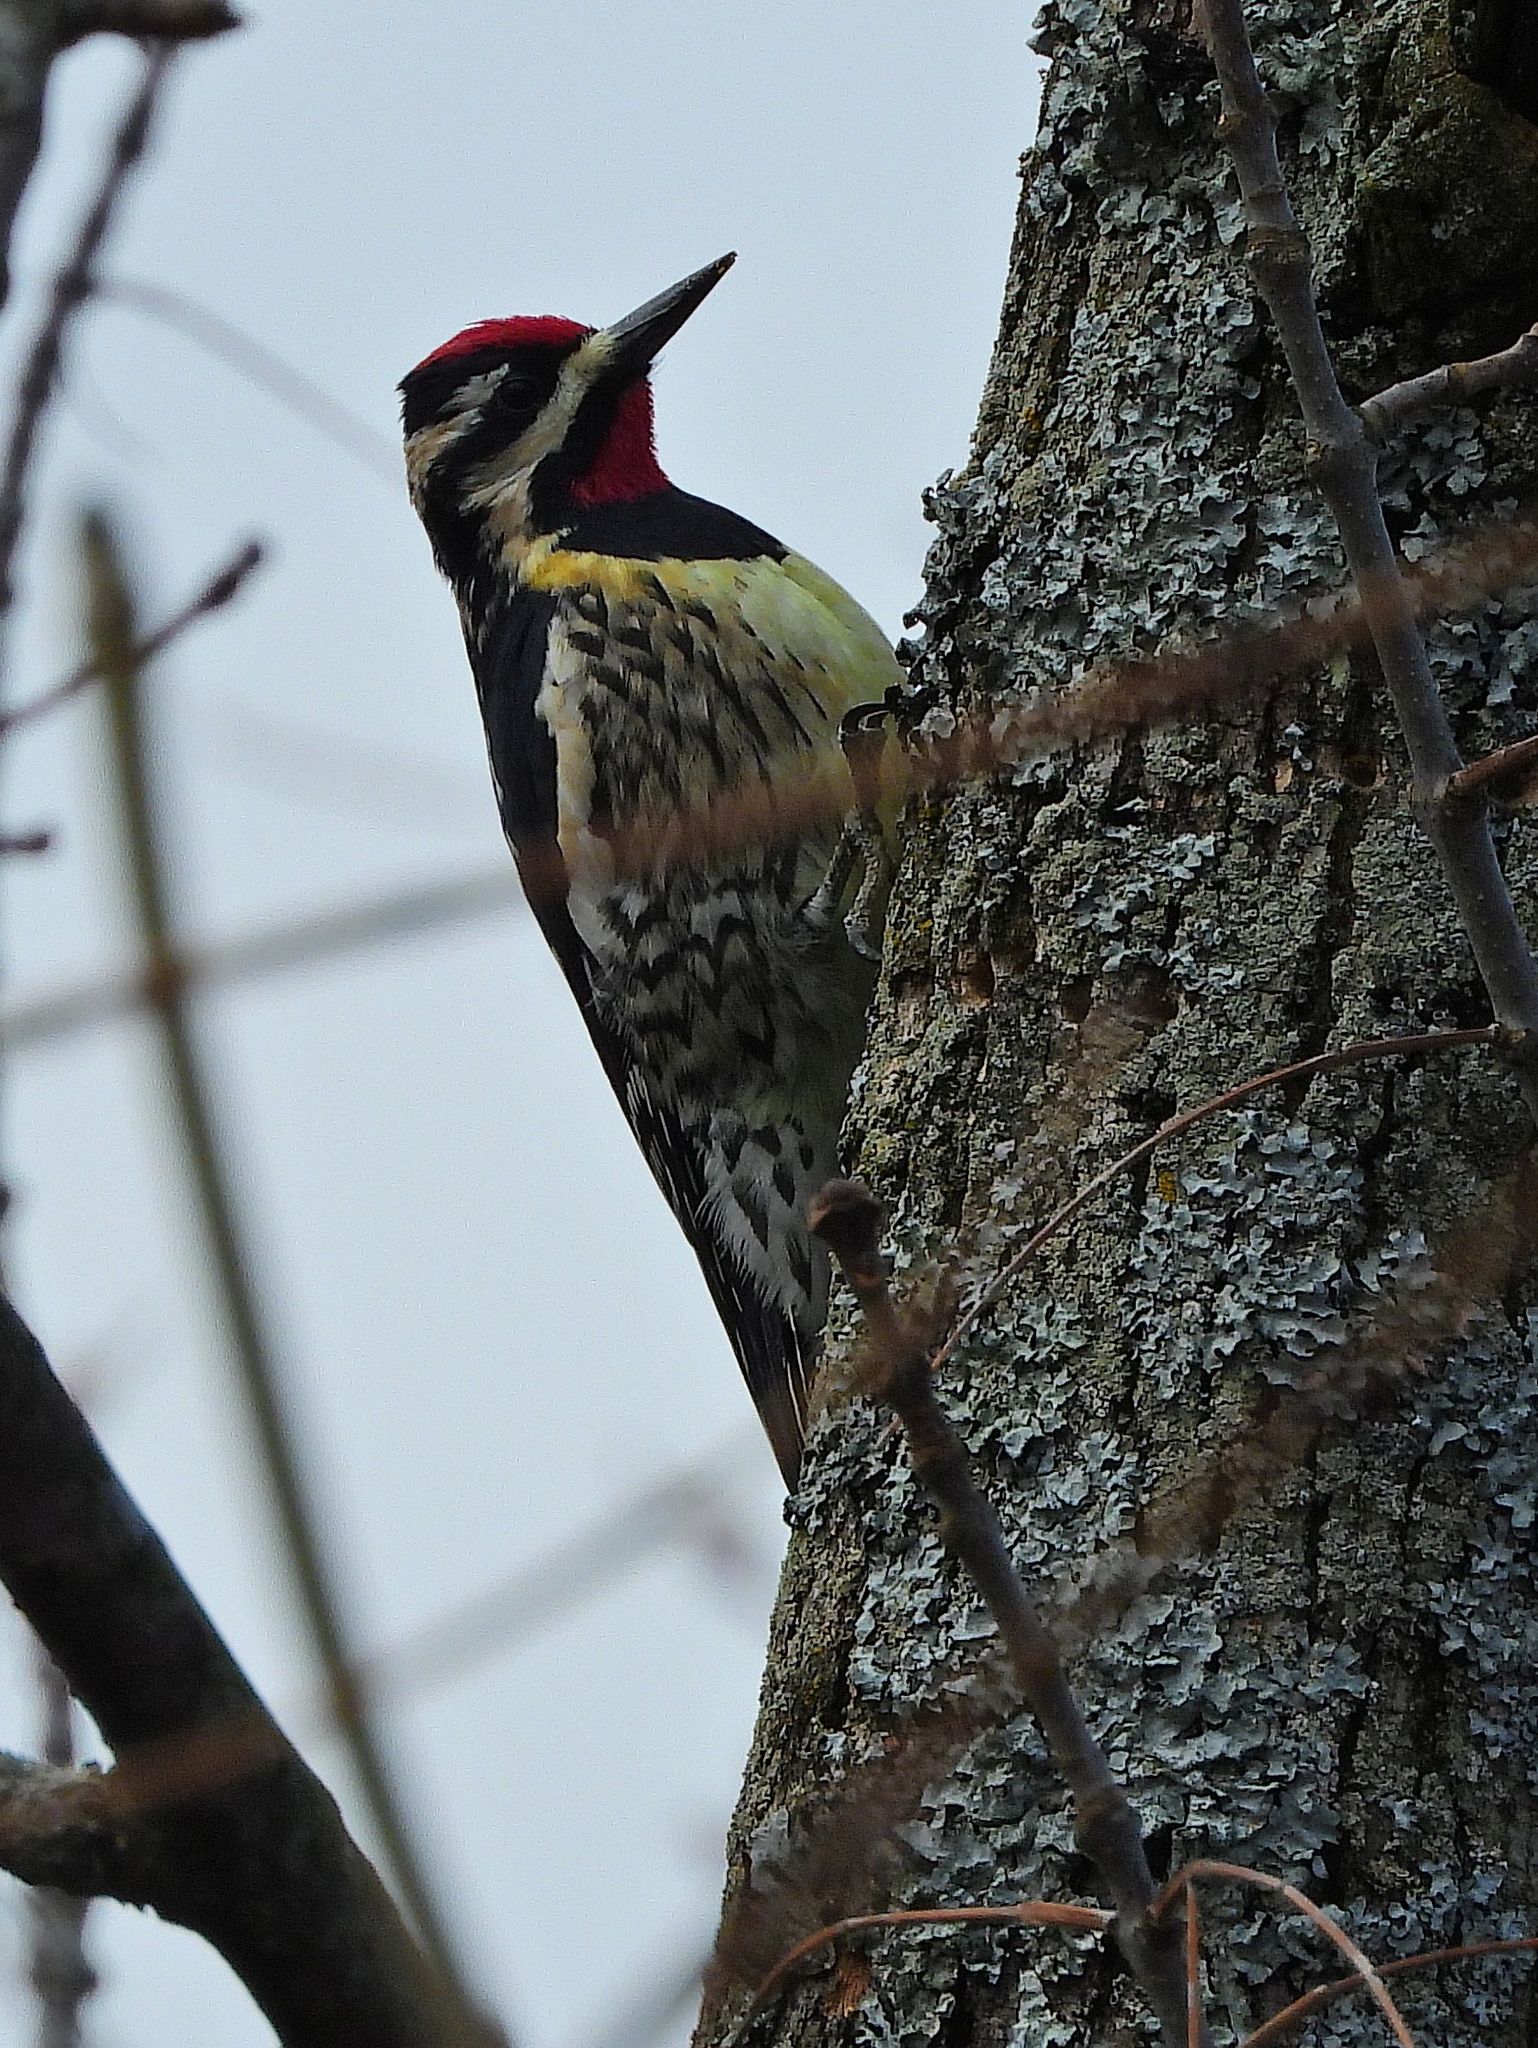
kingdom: Animalia
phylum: Chordata
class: Aves
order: Piciformes
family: Picidae
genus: Sphyrapicus
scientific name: Sphyrapicus varius
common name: Yellow-bellied sapsucker
